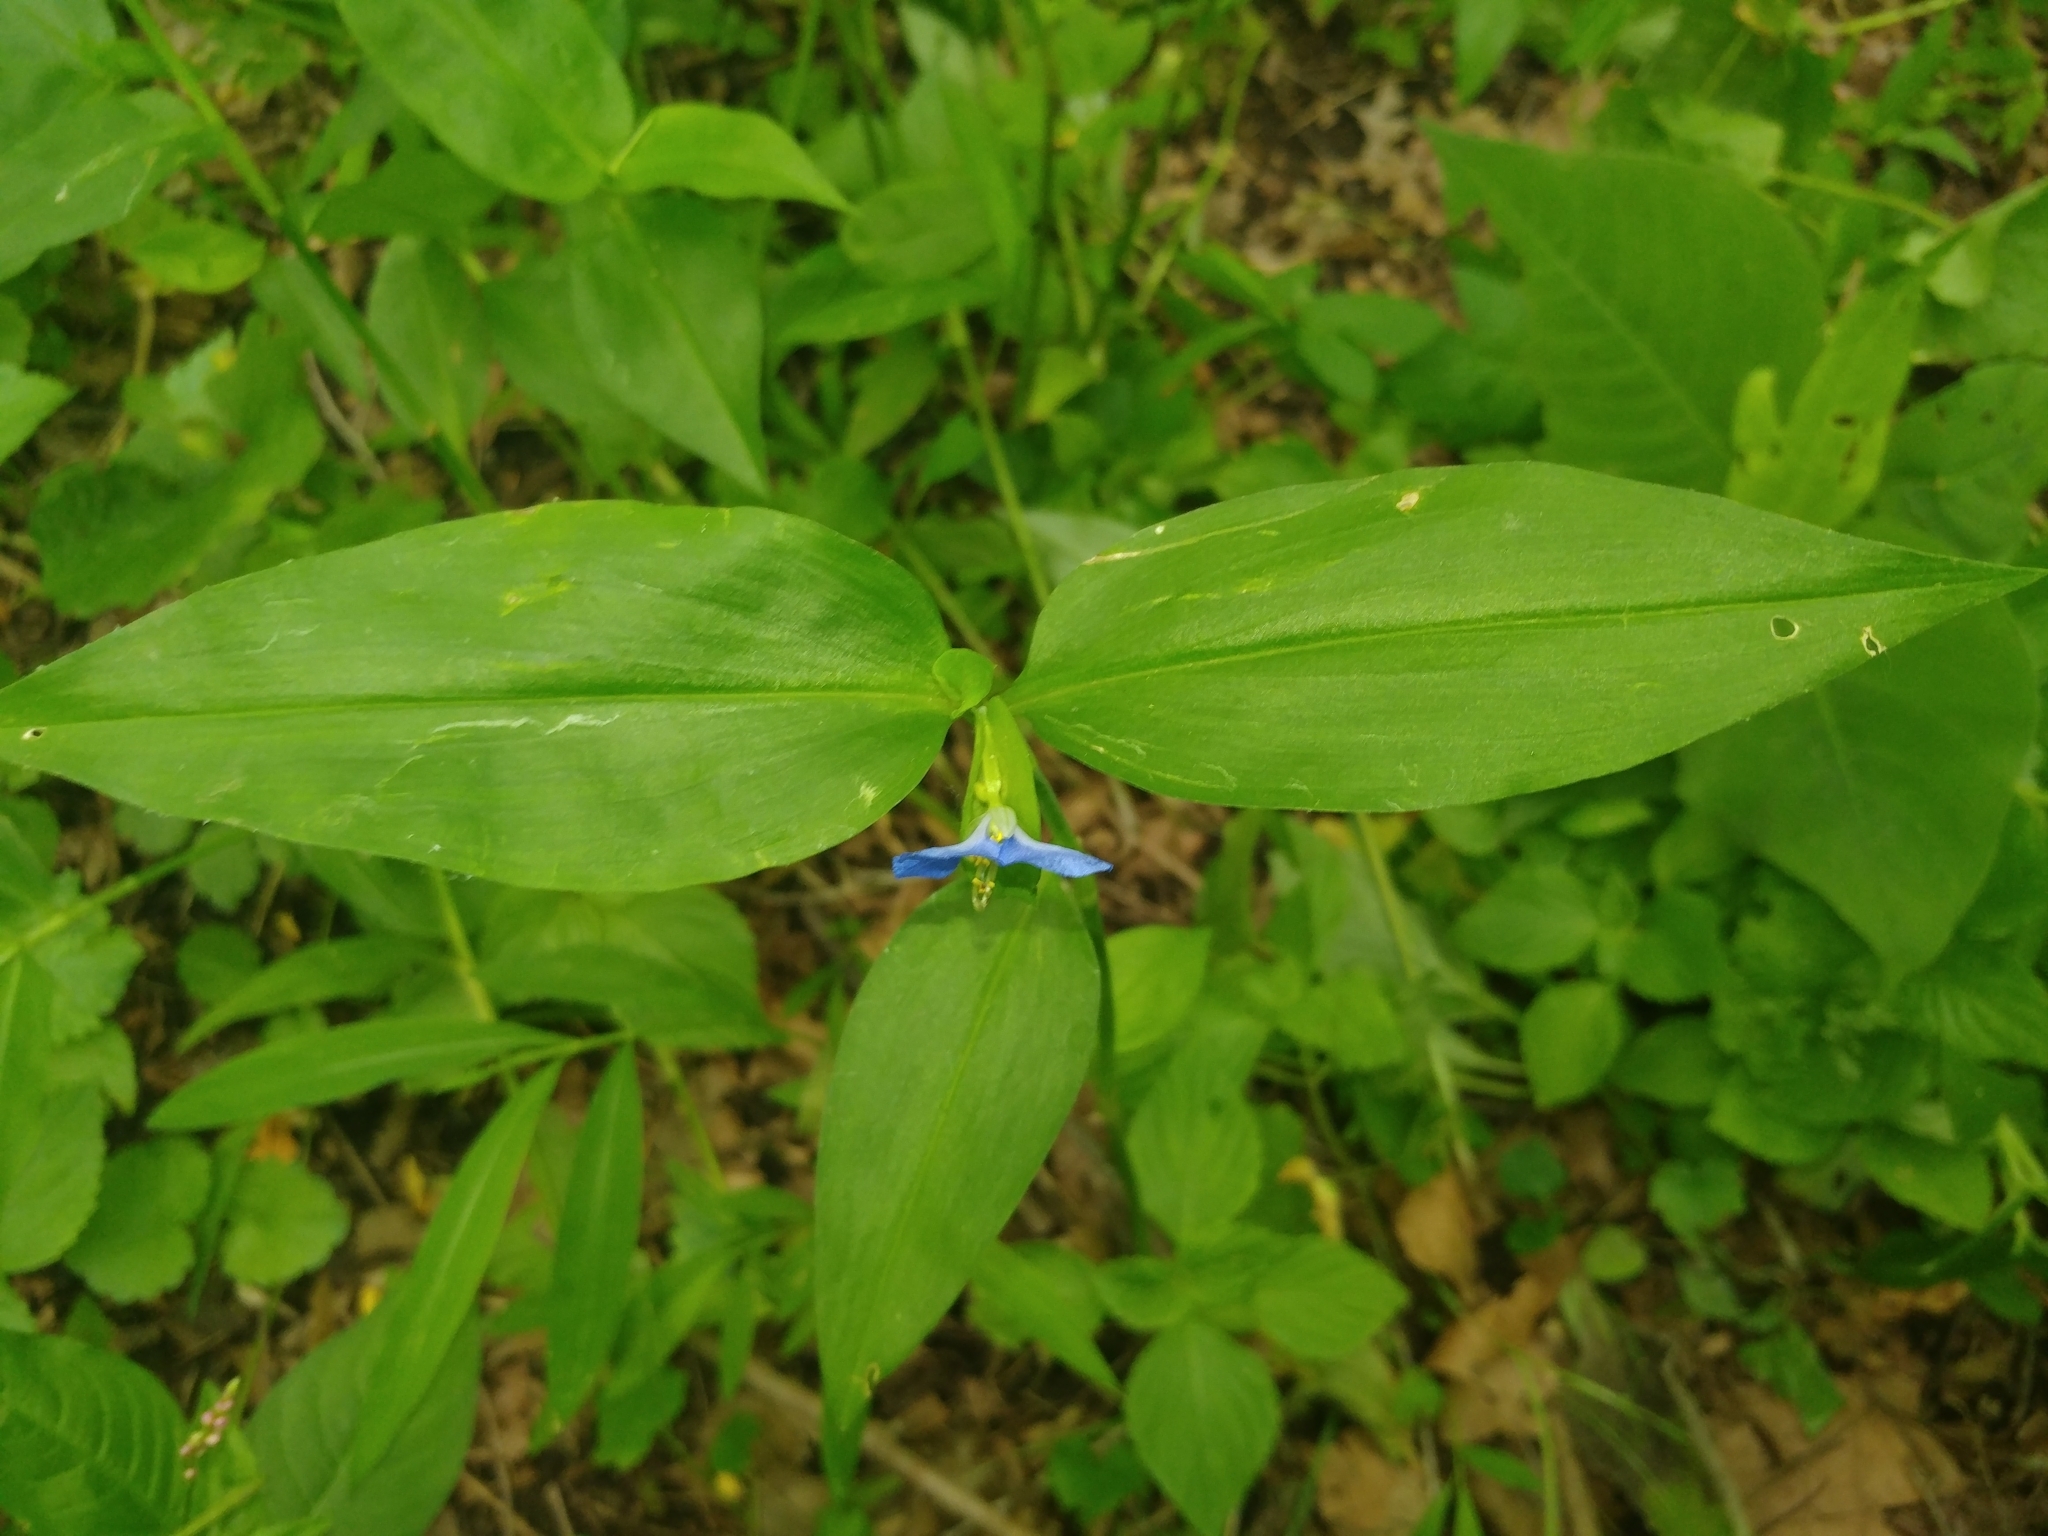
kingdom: Plantae
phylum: Tracheophyta
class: Liliopsida
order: Commelinales
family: Commelinaceae
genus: Commelina
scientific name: Commelina communis
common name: Asiatic dayflower
